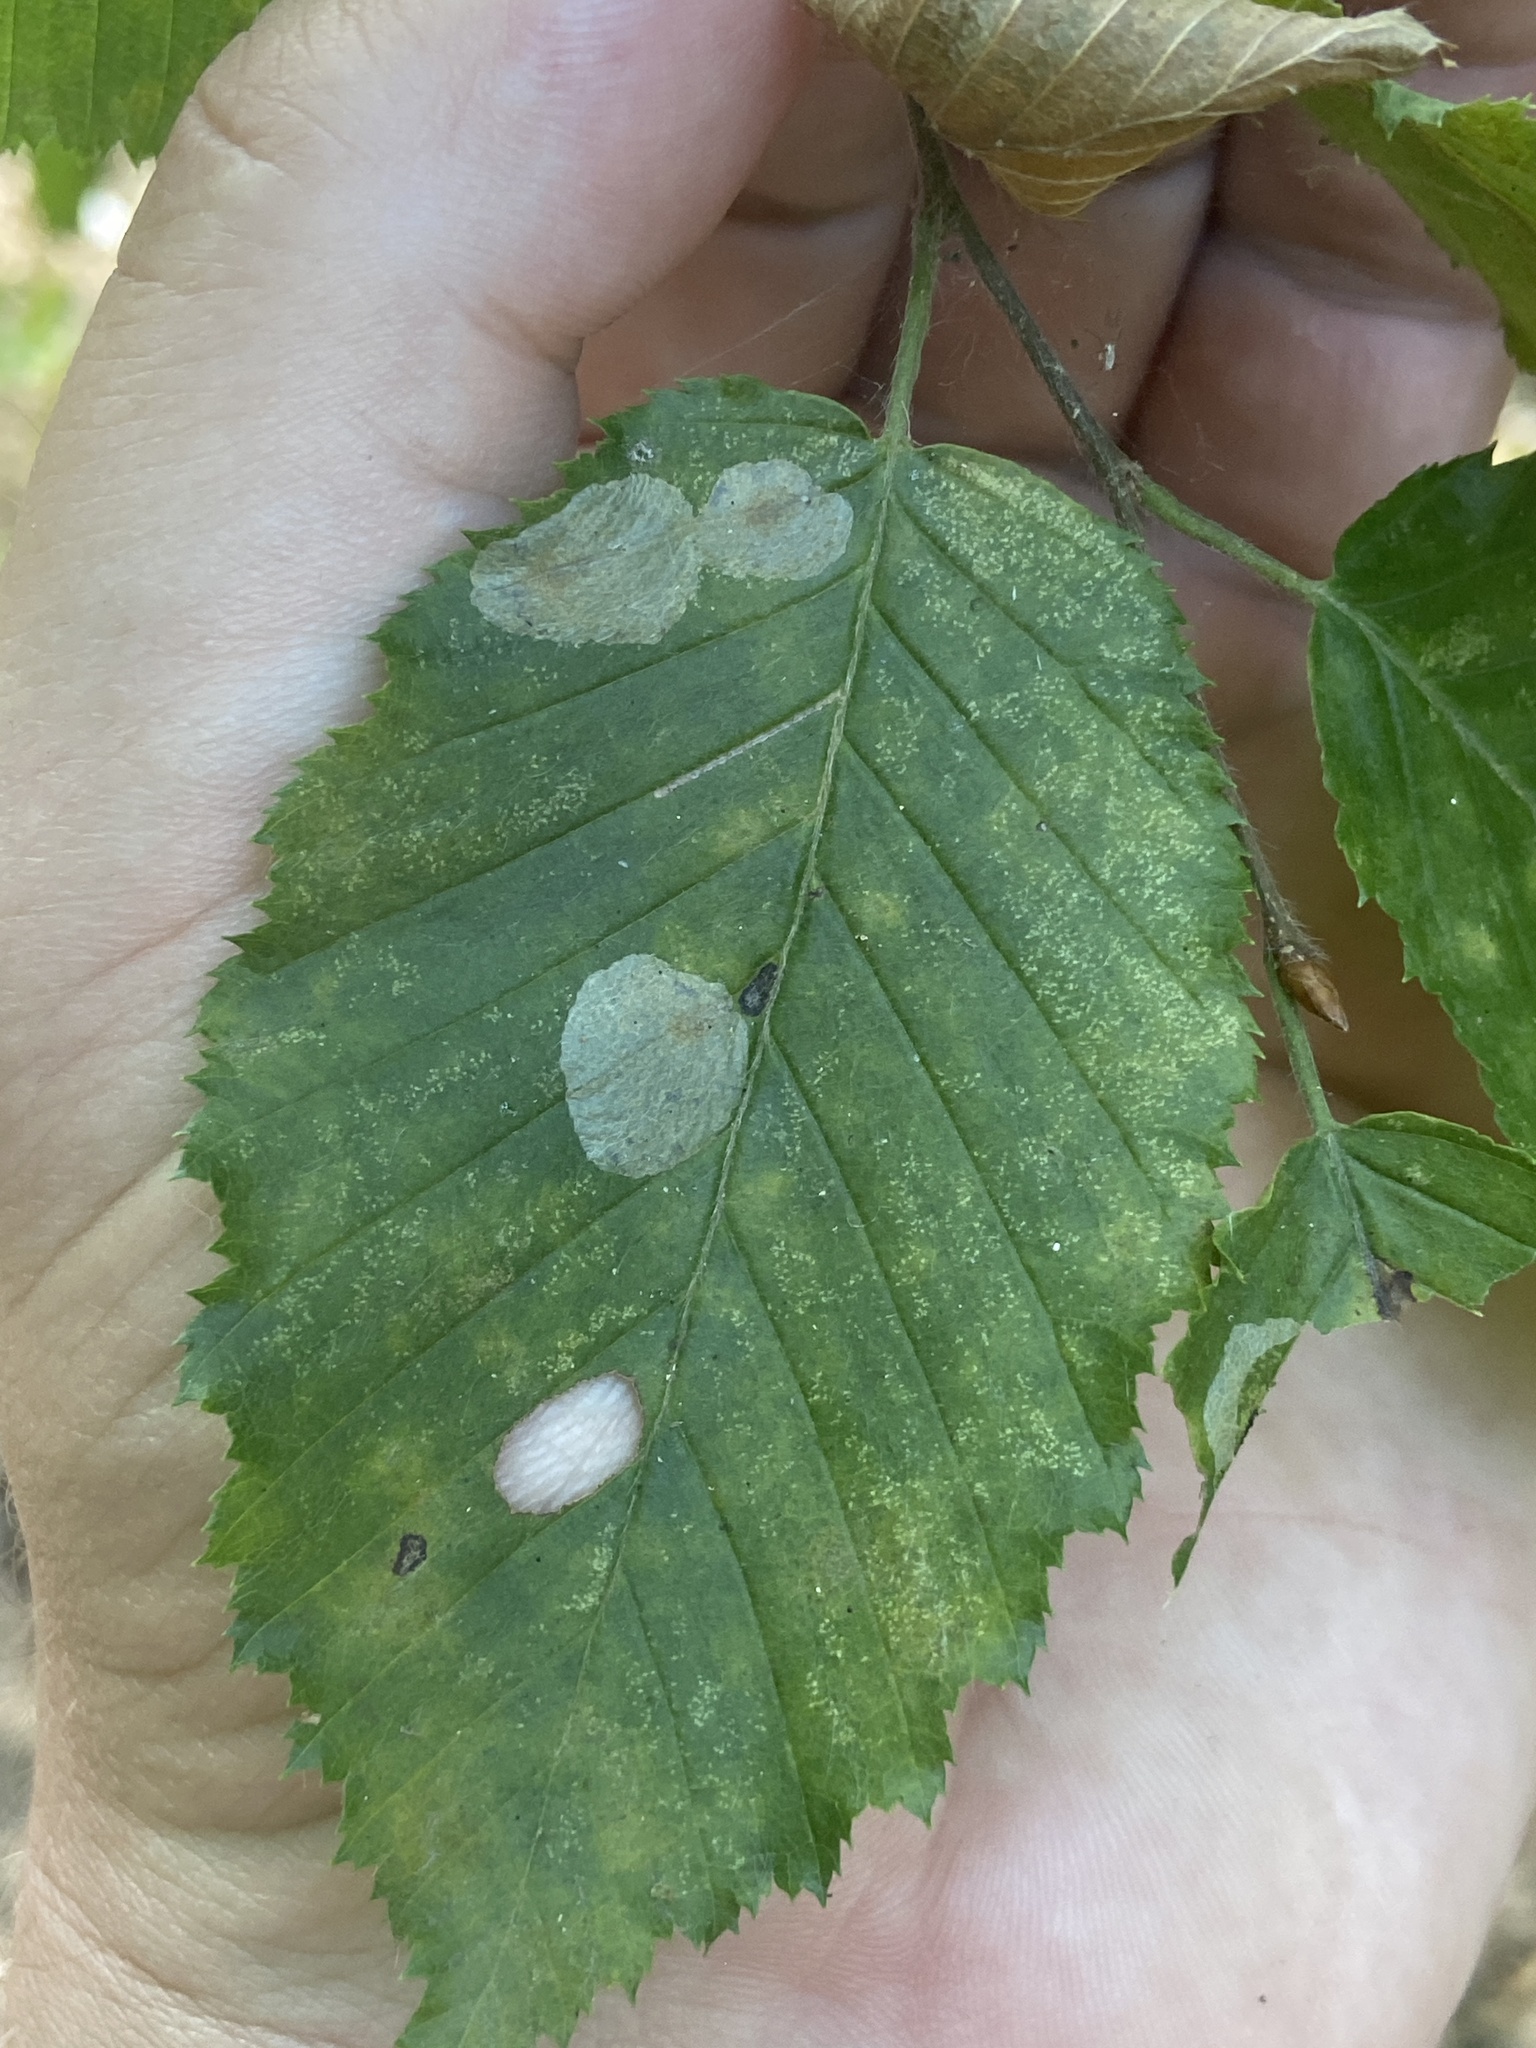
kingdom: Animalia
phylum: Arthropoda
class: Insecta
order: Lepidoptera
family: Gracillariidae
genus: Phyllonorycter
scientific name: Phyllonorycter esperella
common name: Dark hornbeam midget
